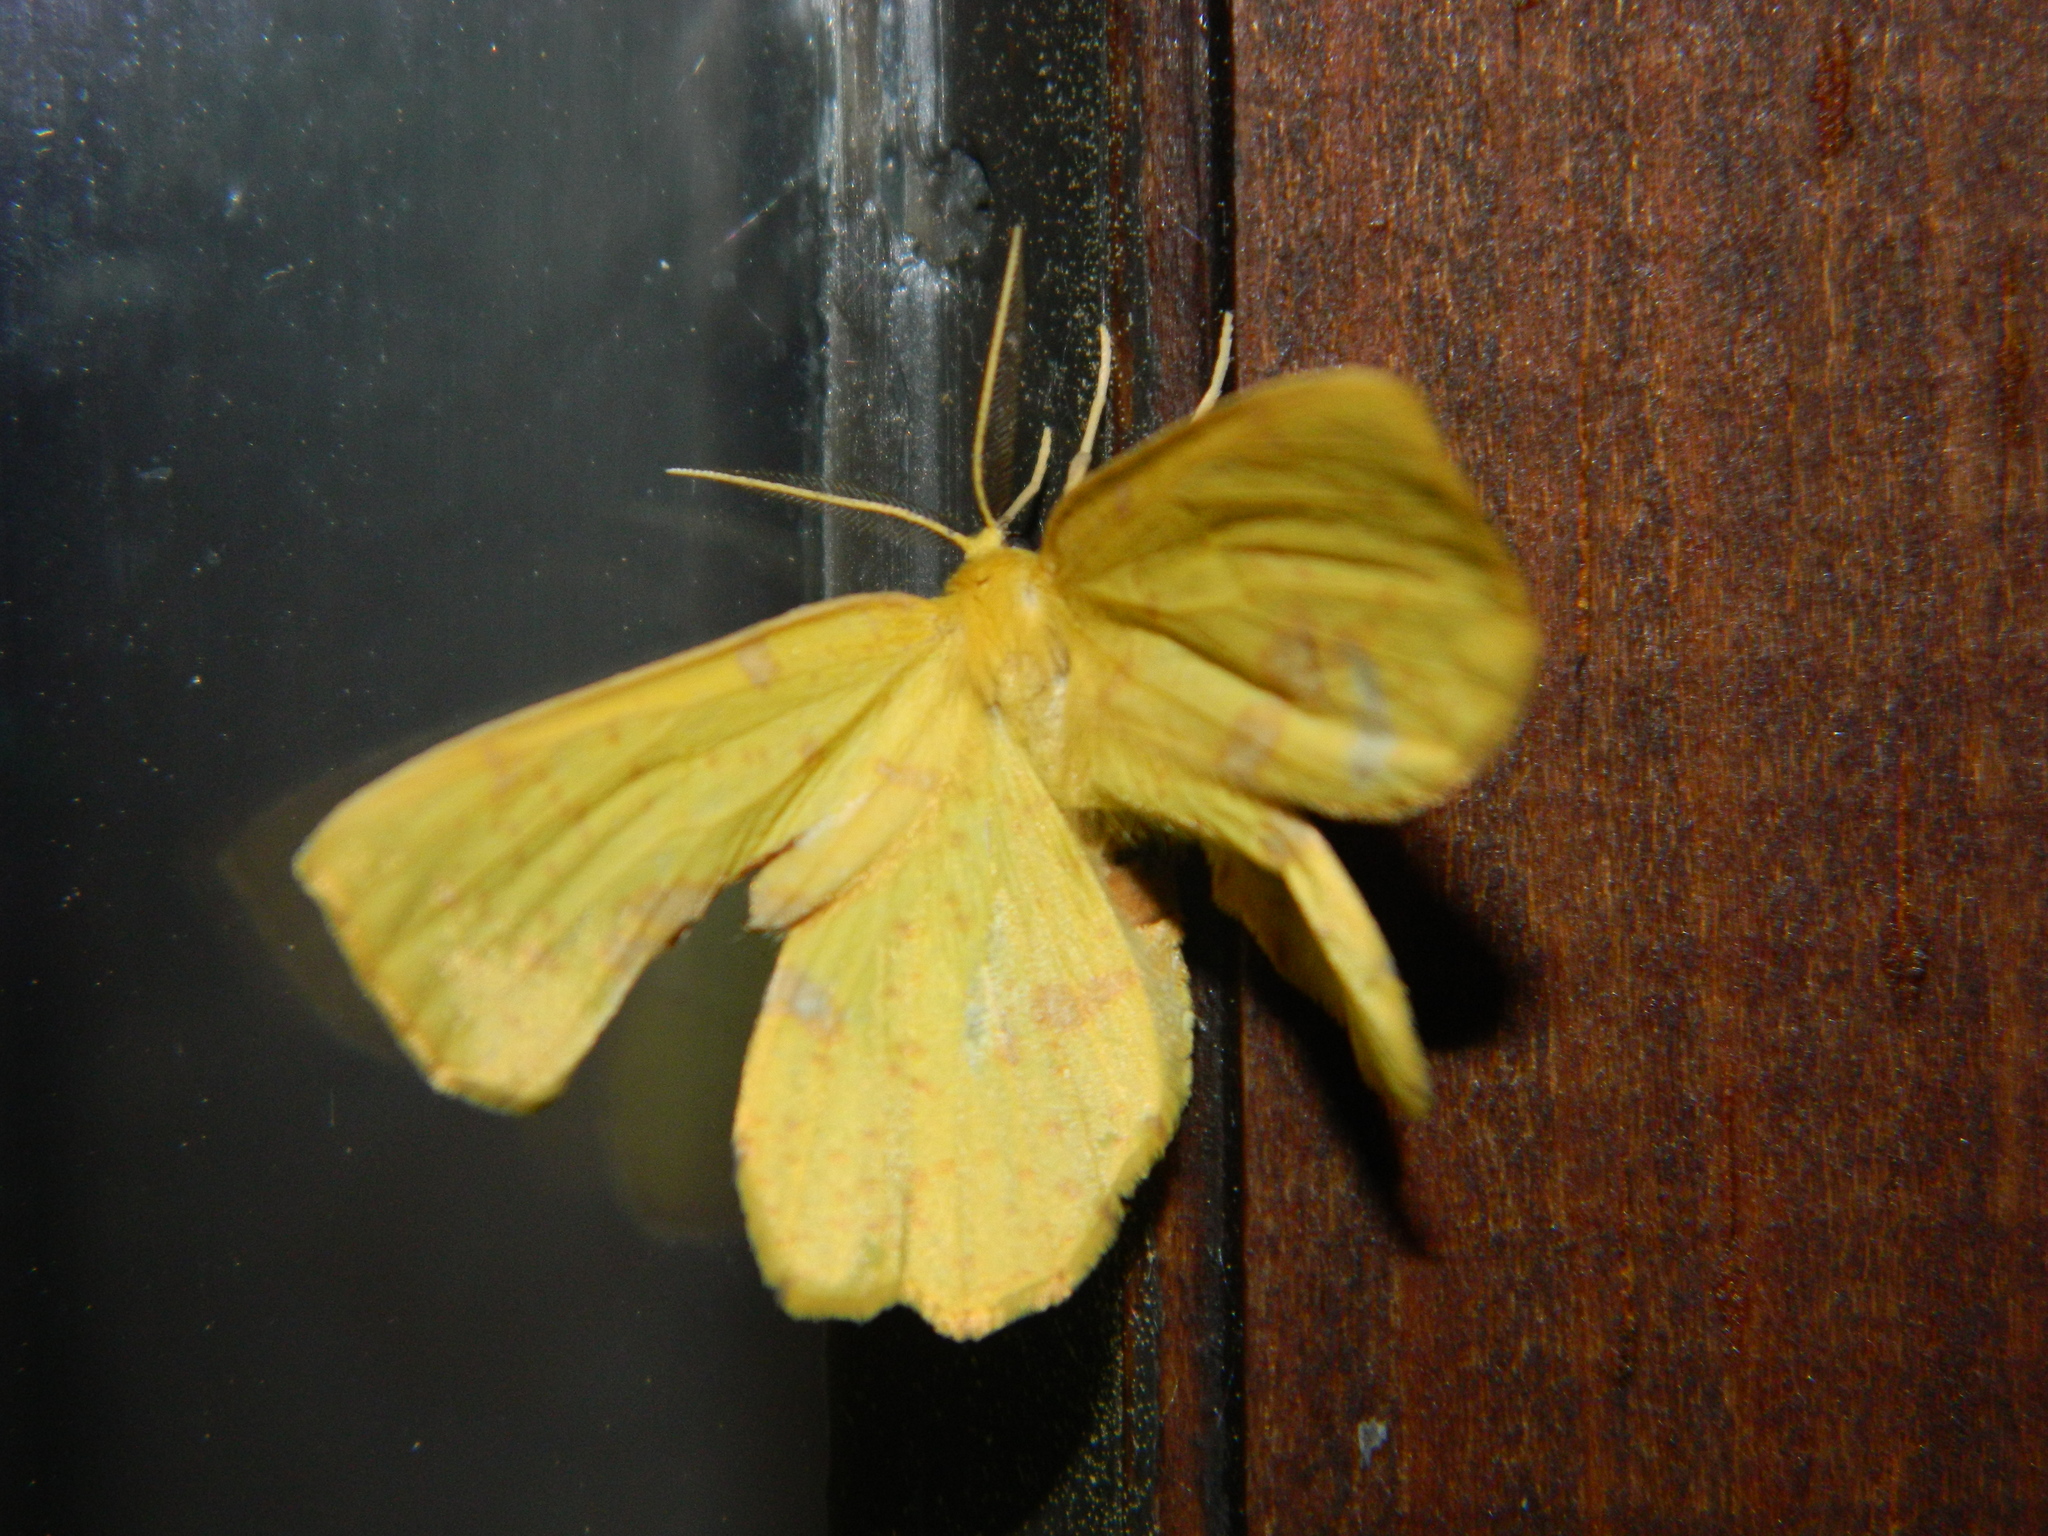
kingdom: Animalia
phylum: Arthropoda
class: Insecta
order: Lepidoptera
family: Geometridae
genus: Xanthotype
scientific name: Xanthotype
